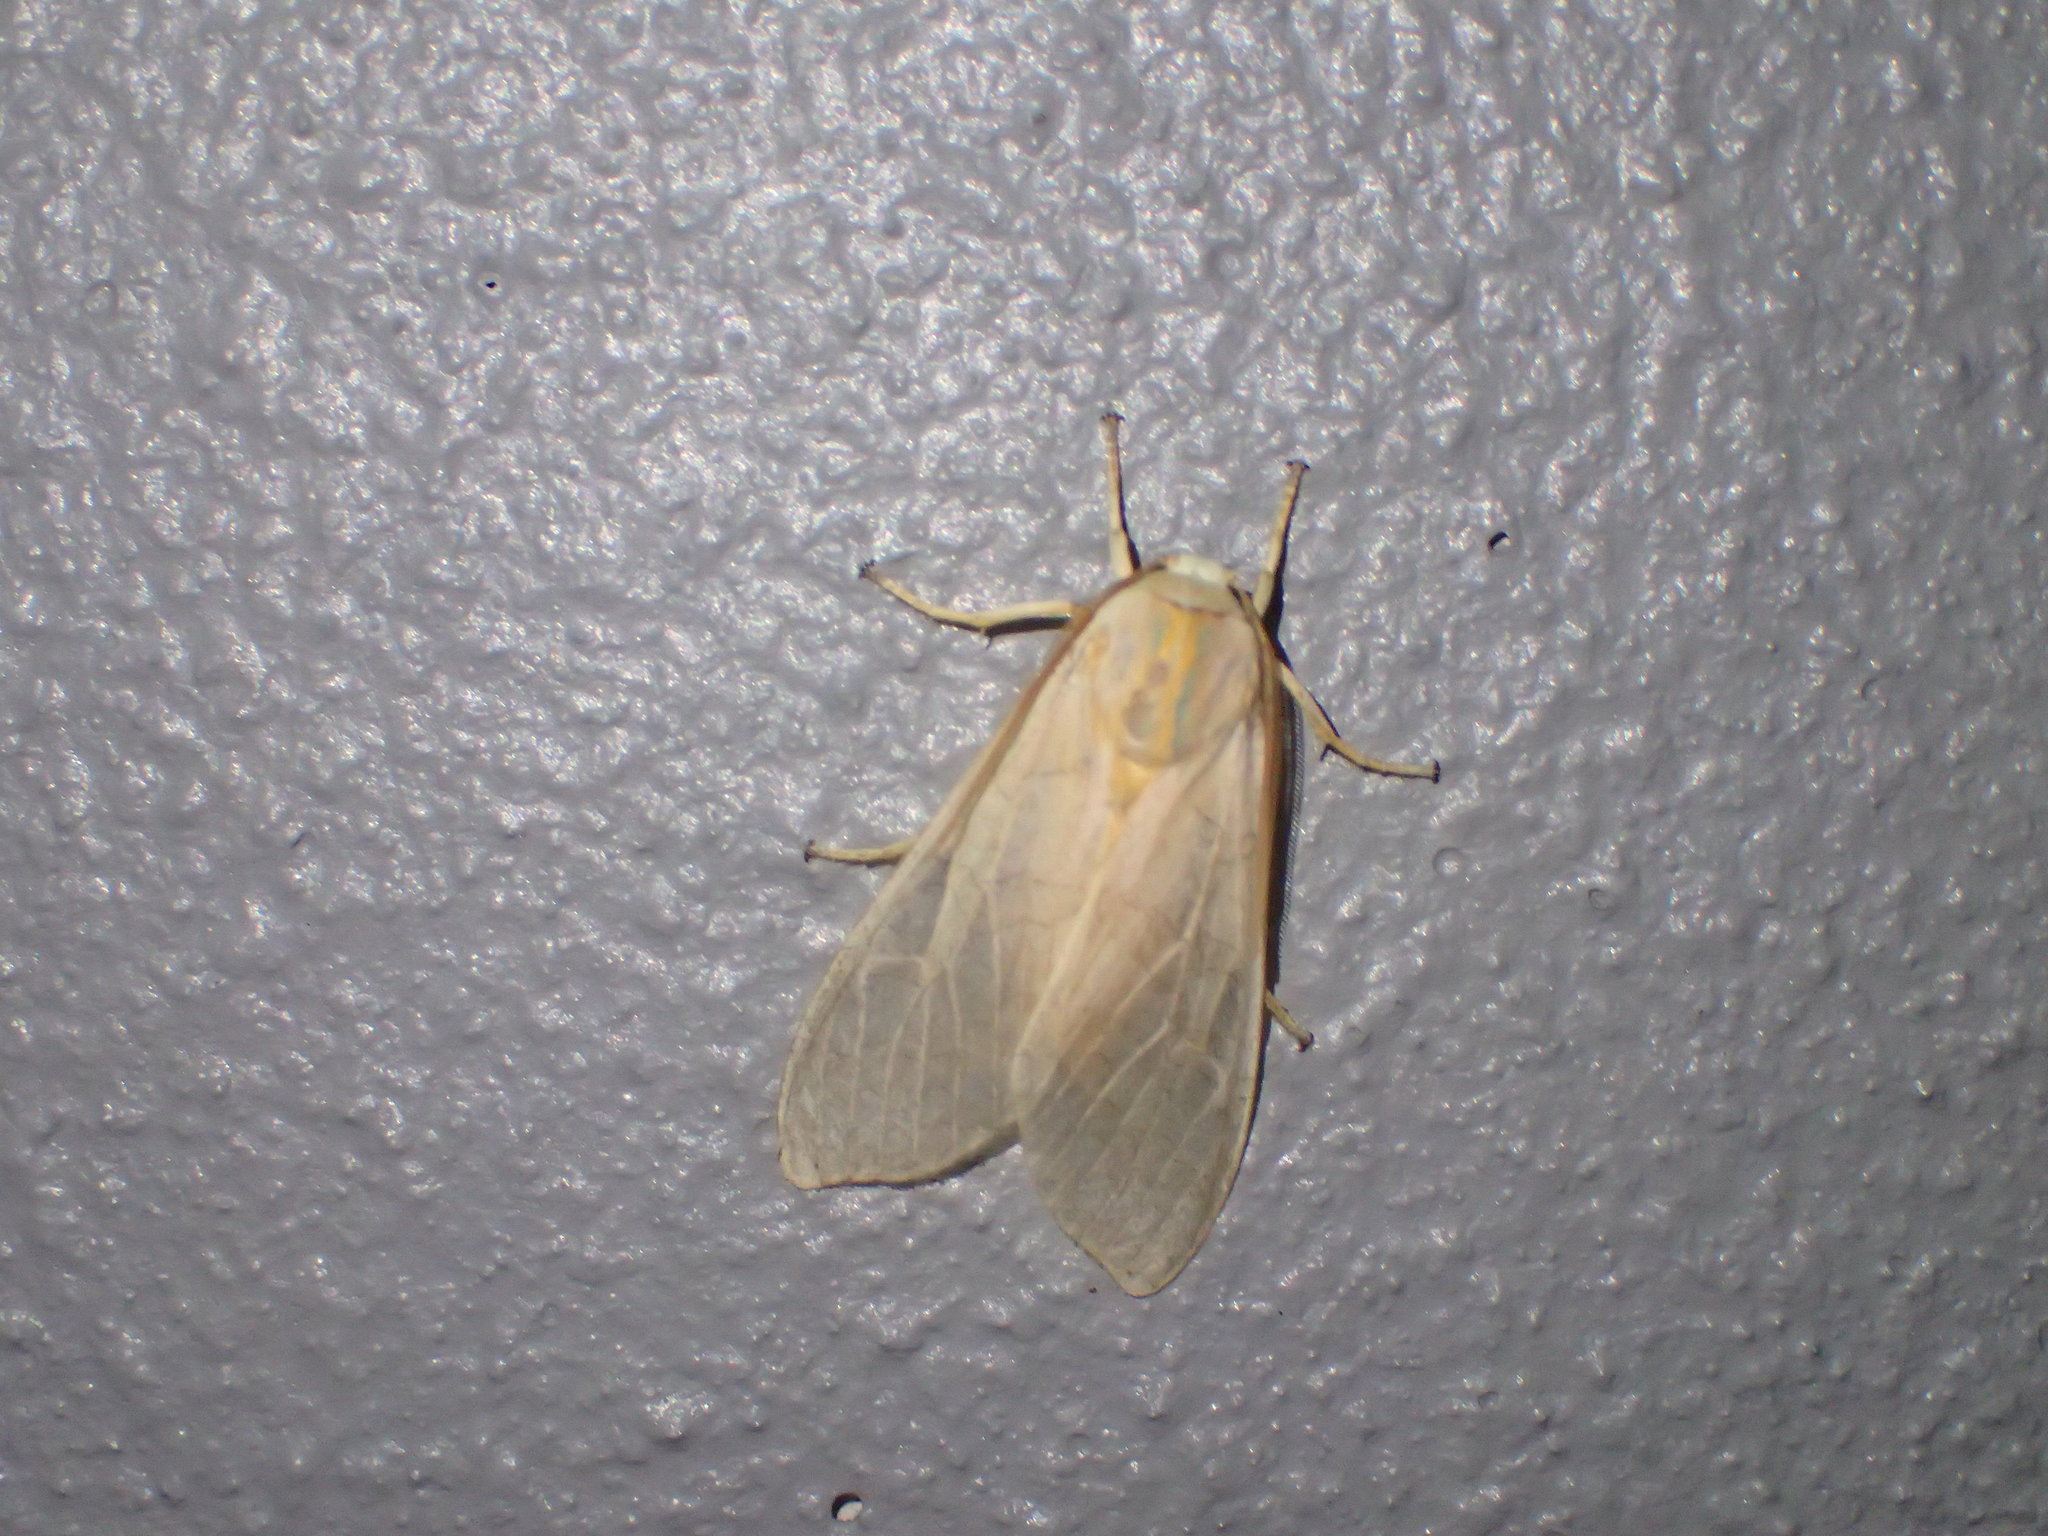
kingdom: Animalia
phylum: Arthropoda
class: Insecta
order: Lepidoptera
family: Erebidae
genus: Halysidota
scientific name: Halysidota tessellaris
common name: Banded tussock moth
